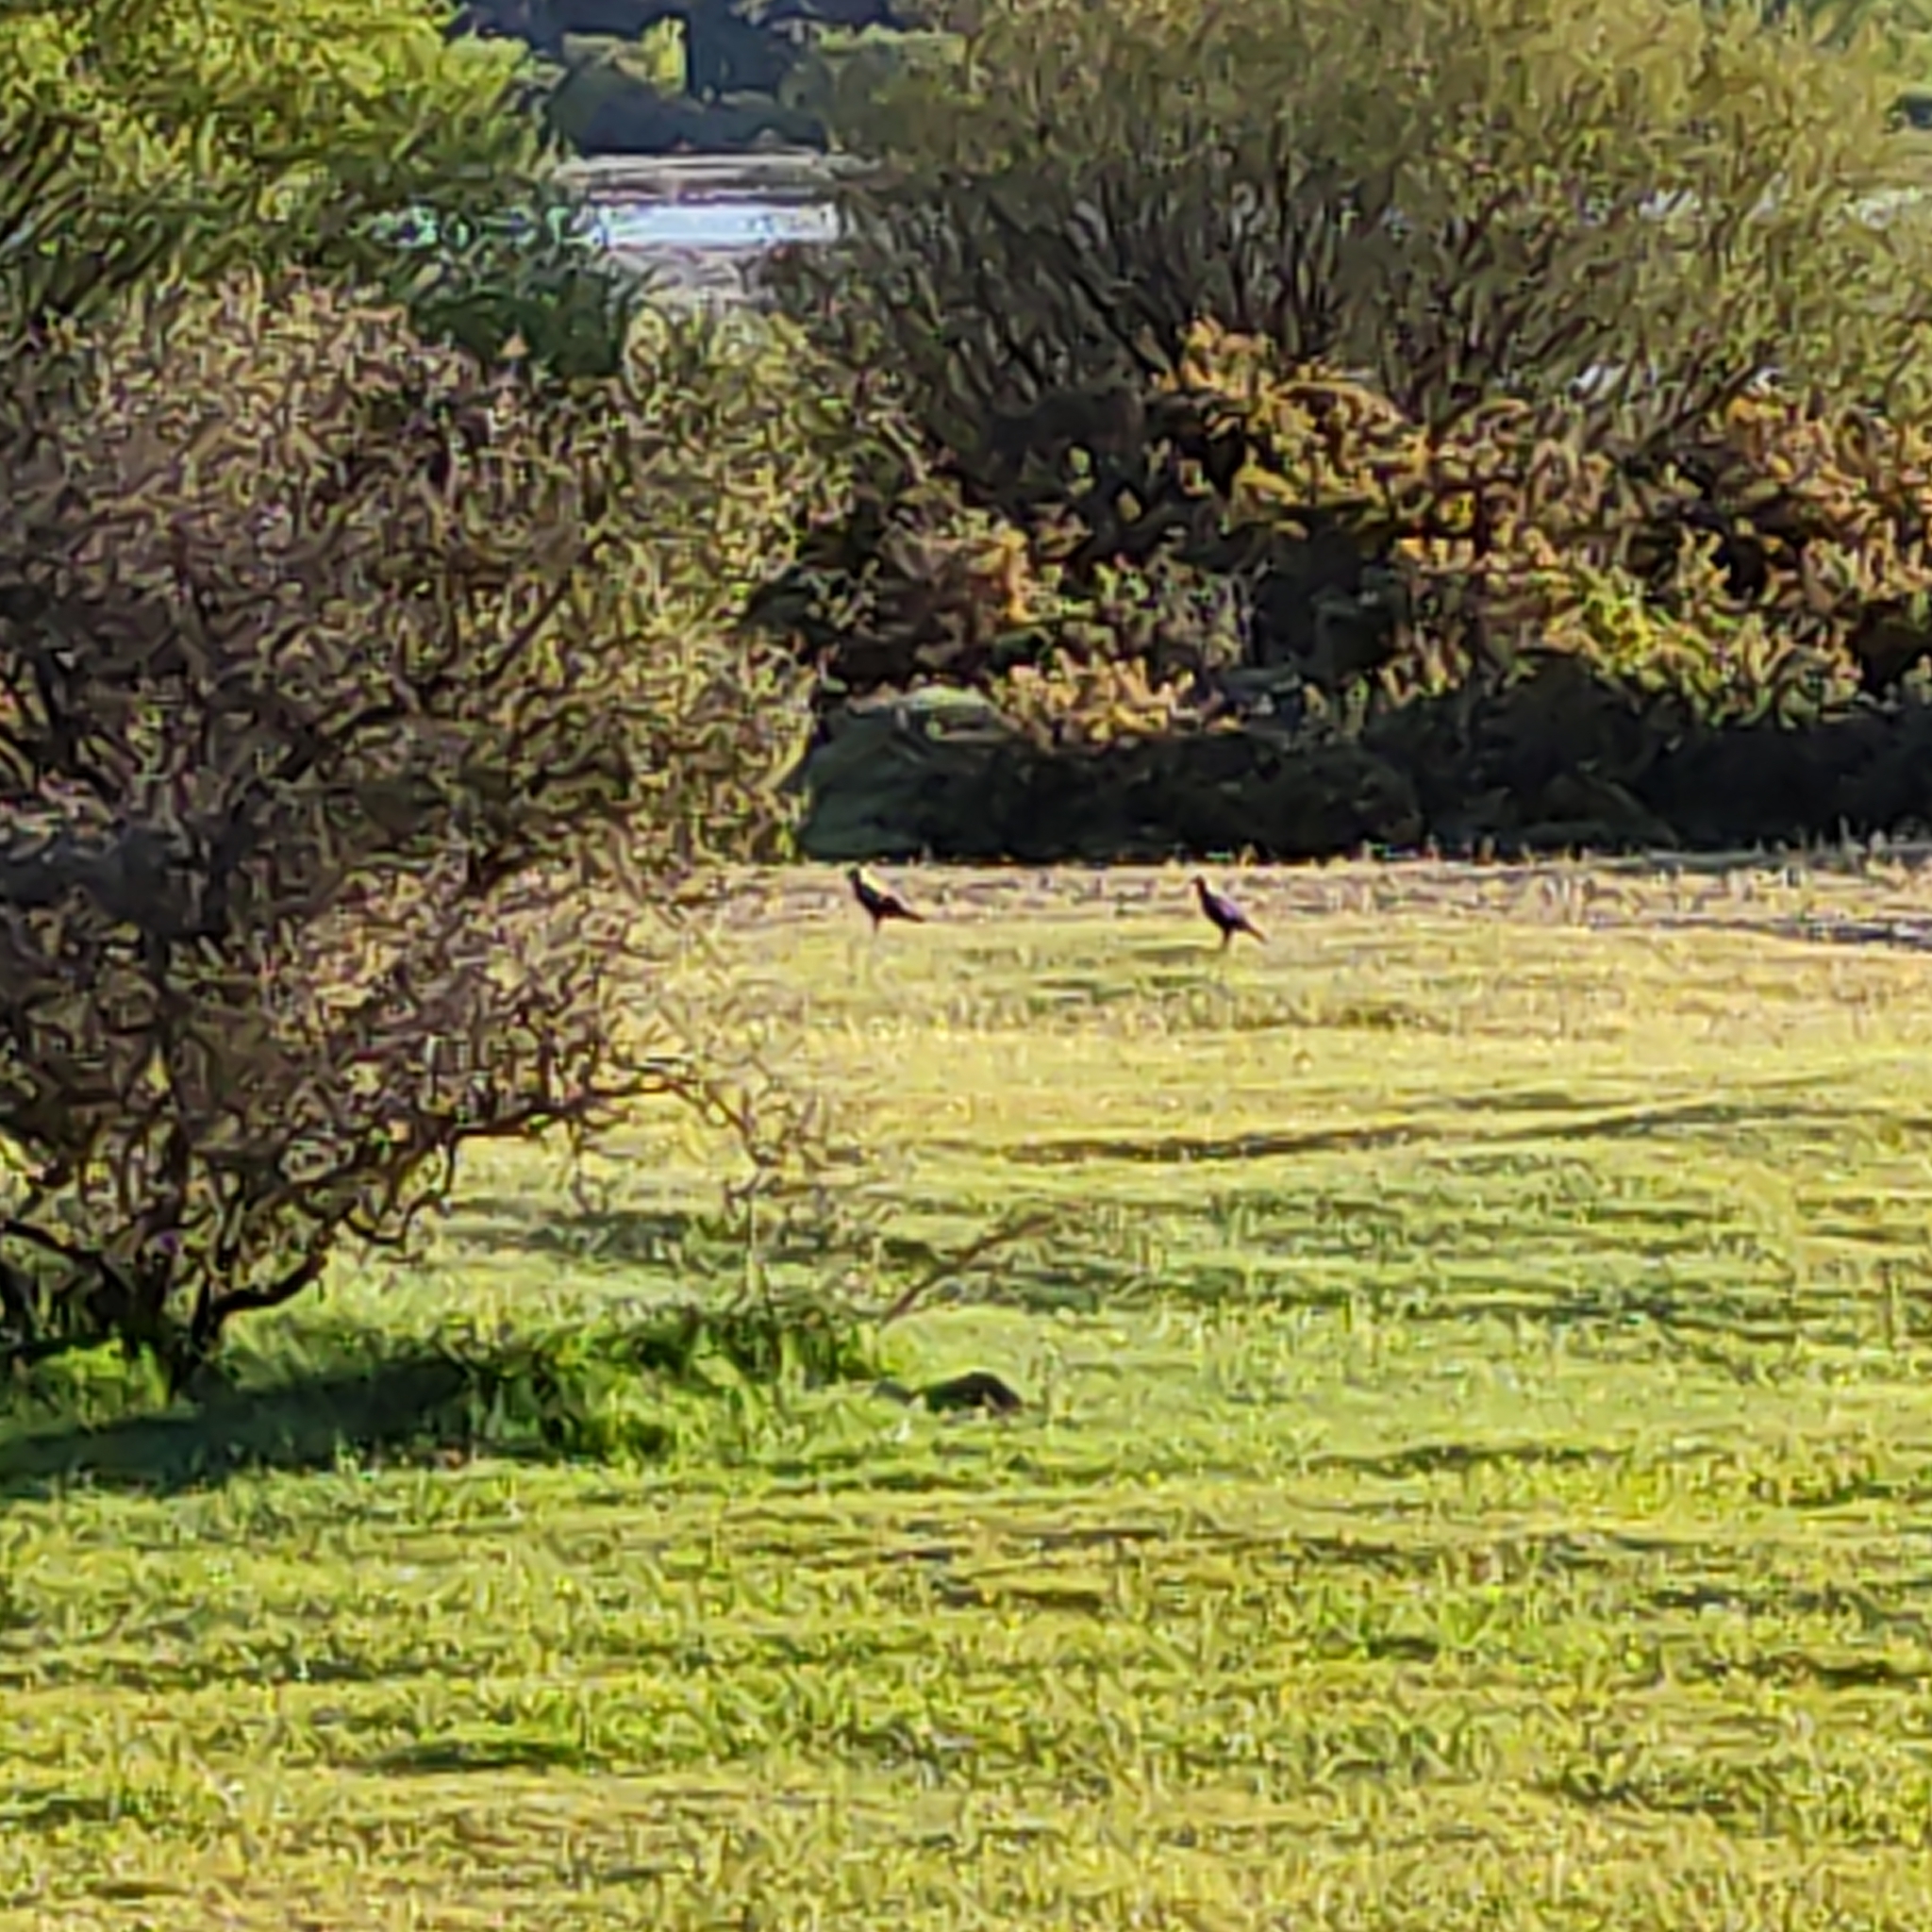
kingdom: Animalia
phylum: Chordata
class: Aves
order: Passeriformes
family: Cracticidae
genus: Gymnorhina
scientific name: Gymnorhina tibicen
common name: Australian magpie
